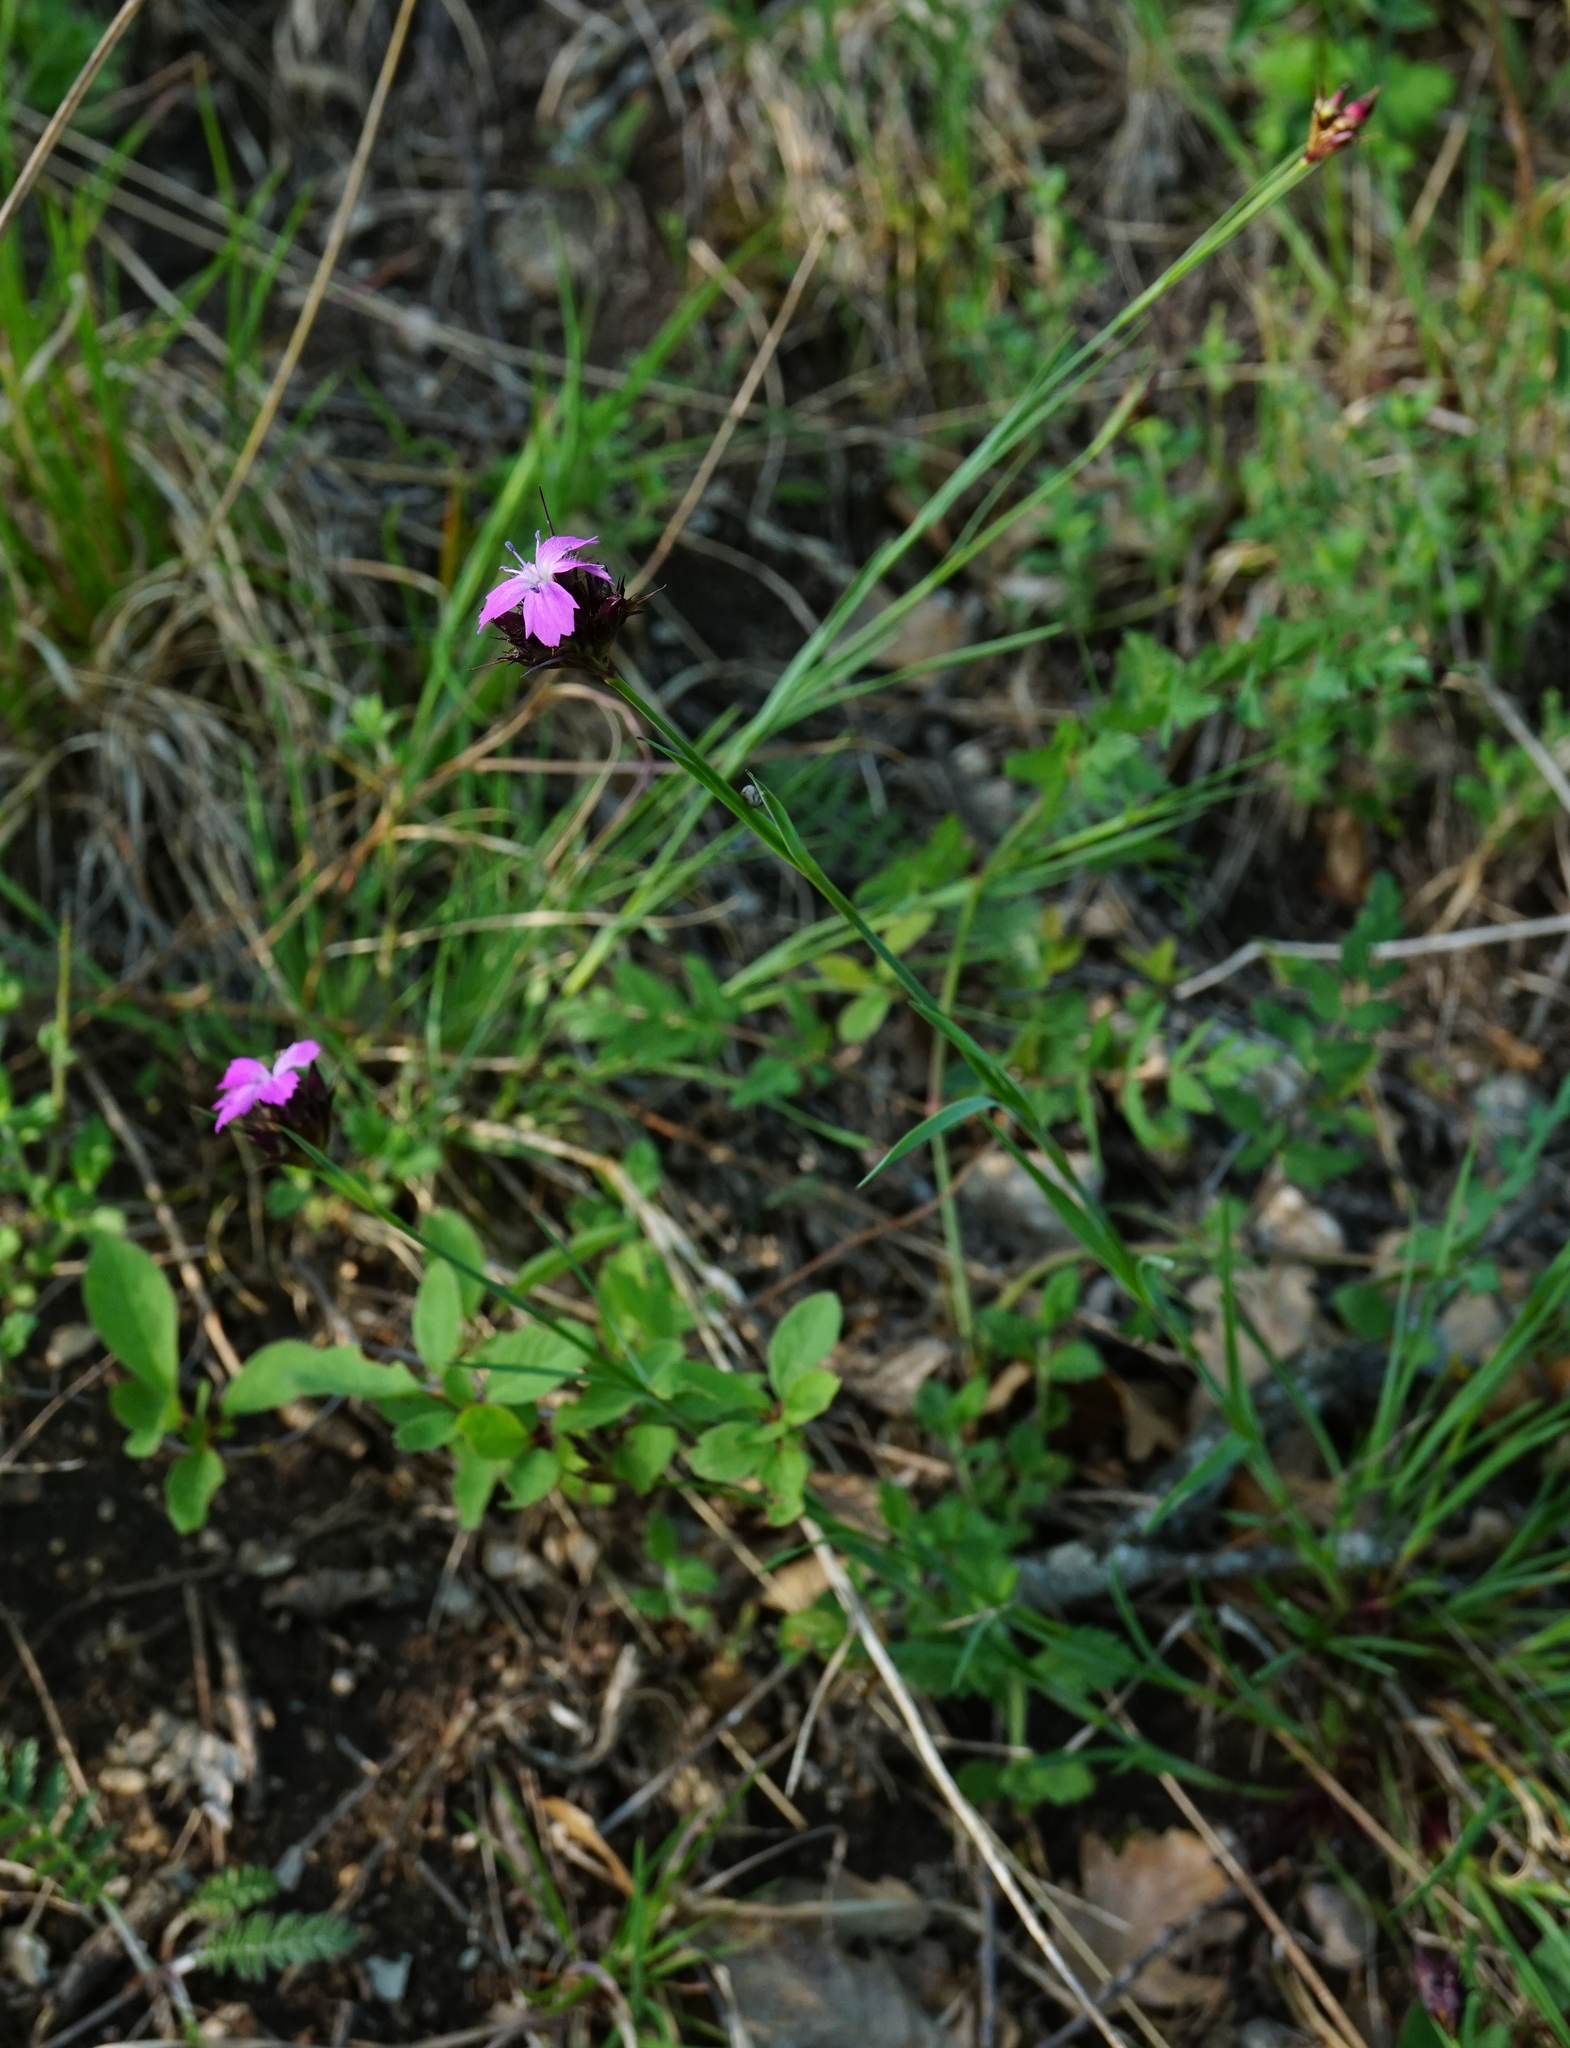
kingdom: Plantae
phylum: Tracheophyta
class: Magnoliopsida
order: Caryophyllales
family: Caryophyllaceae
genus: Dianthus
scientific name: Dianthus carthusianorum
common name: Carthusian pink
